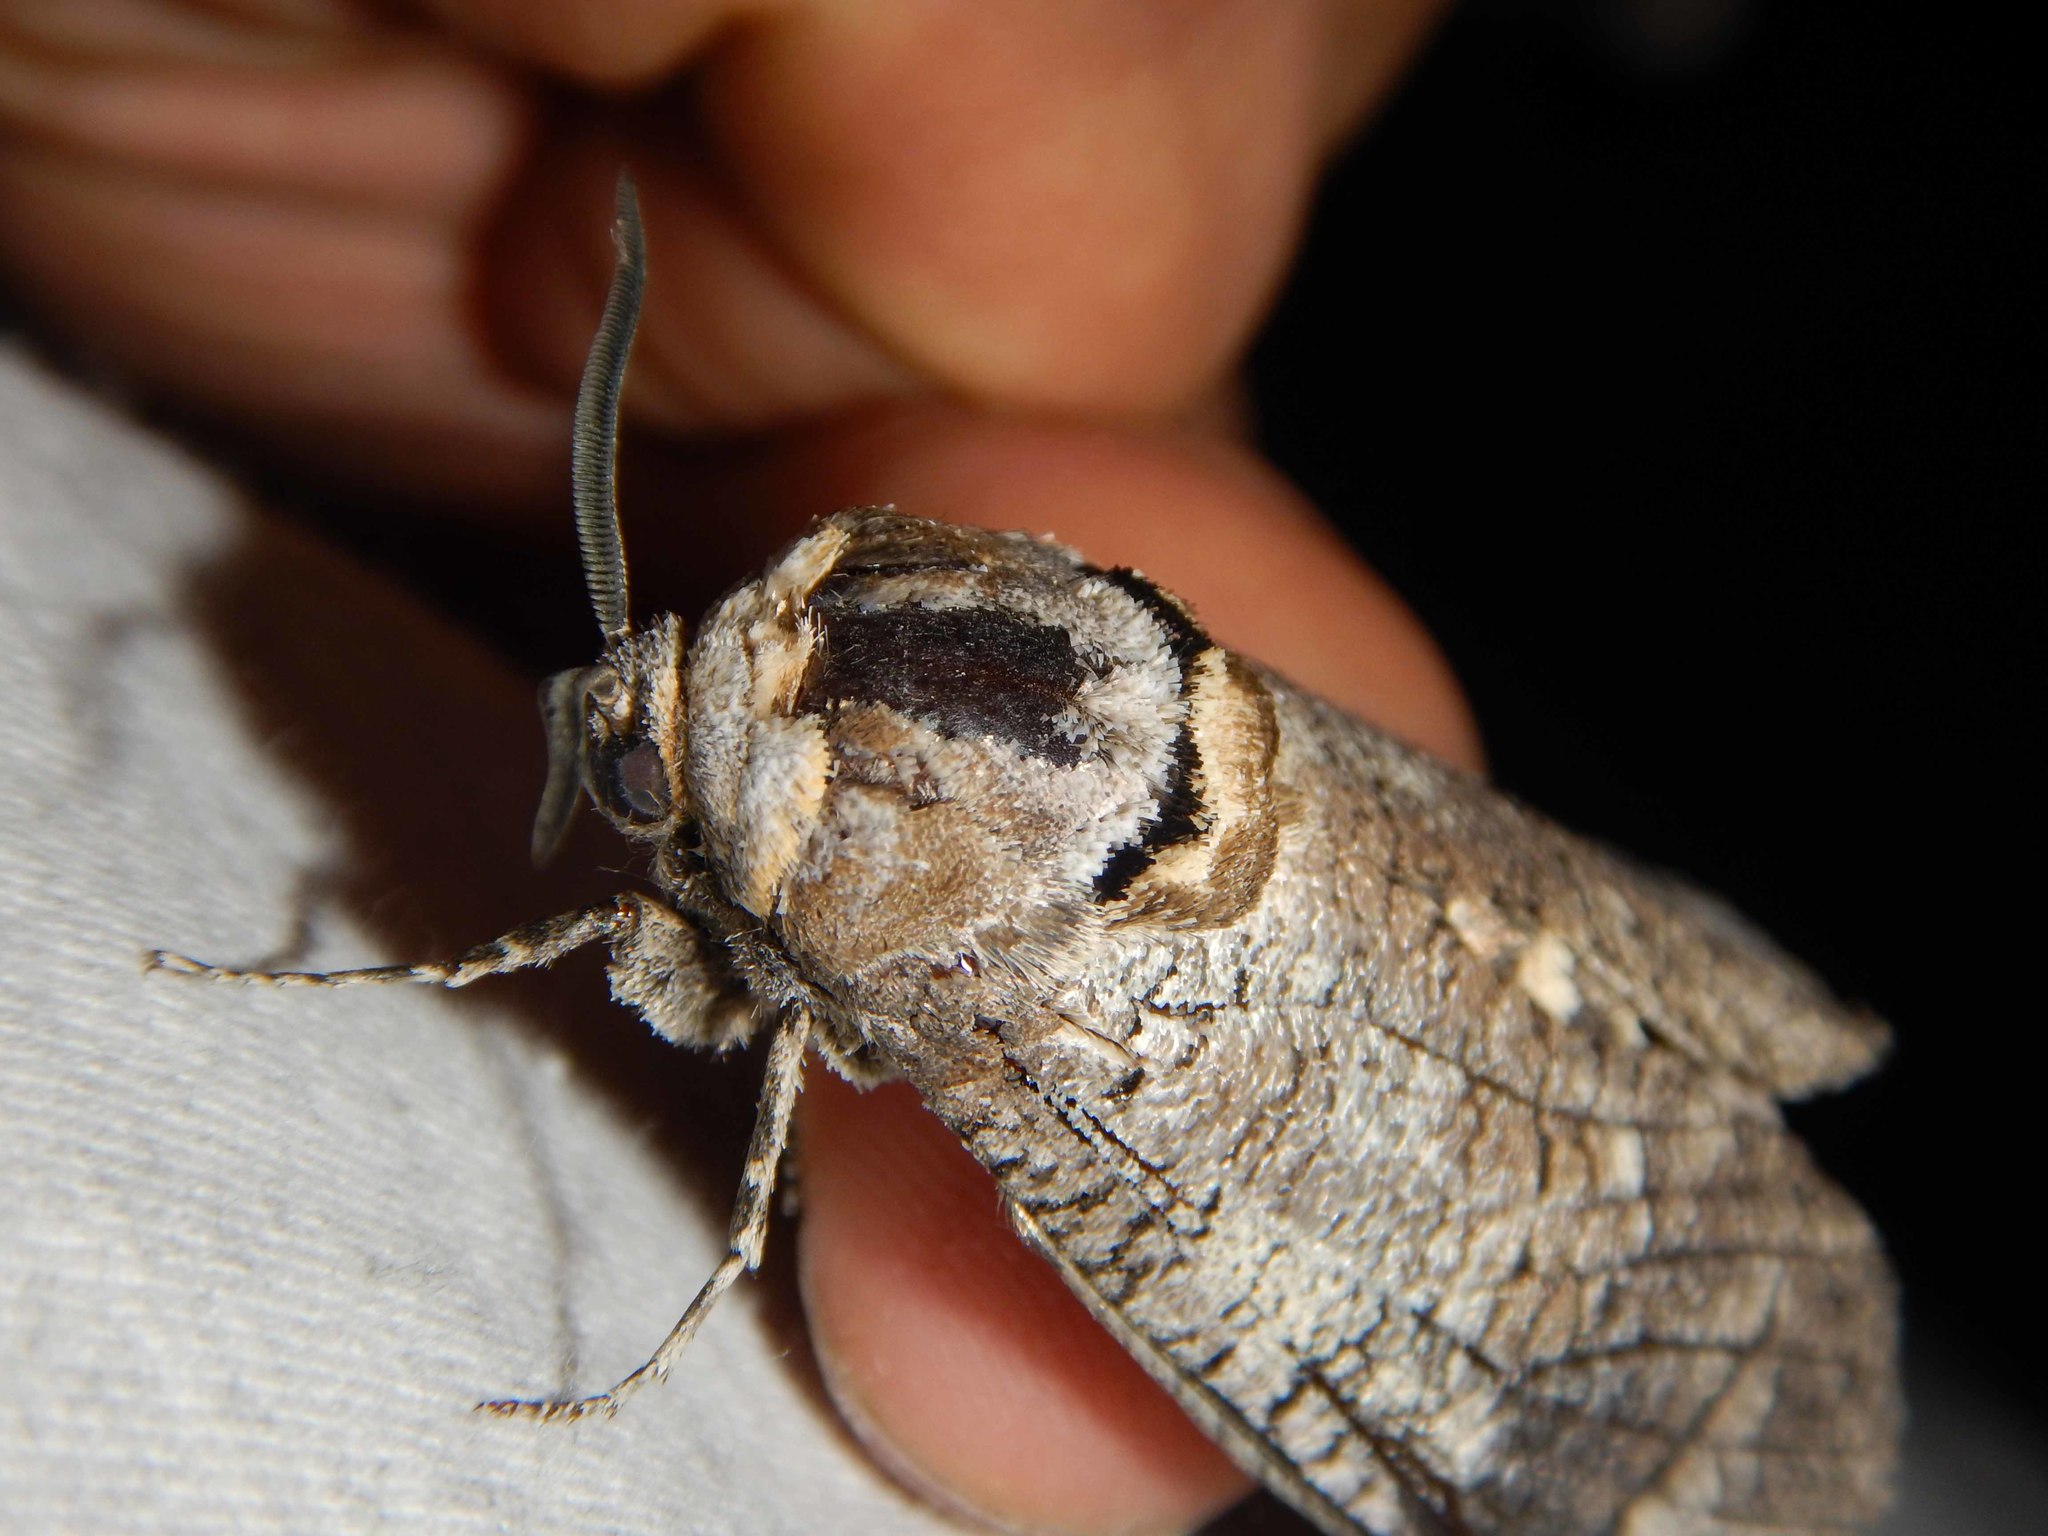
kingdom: Animalia
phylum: Arthropoda
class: Insecta
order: Lepidoptera
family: Cossidae
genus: Cossus
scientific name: Cossus cossus
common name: Goat moth
